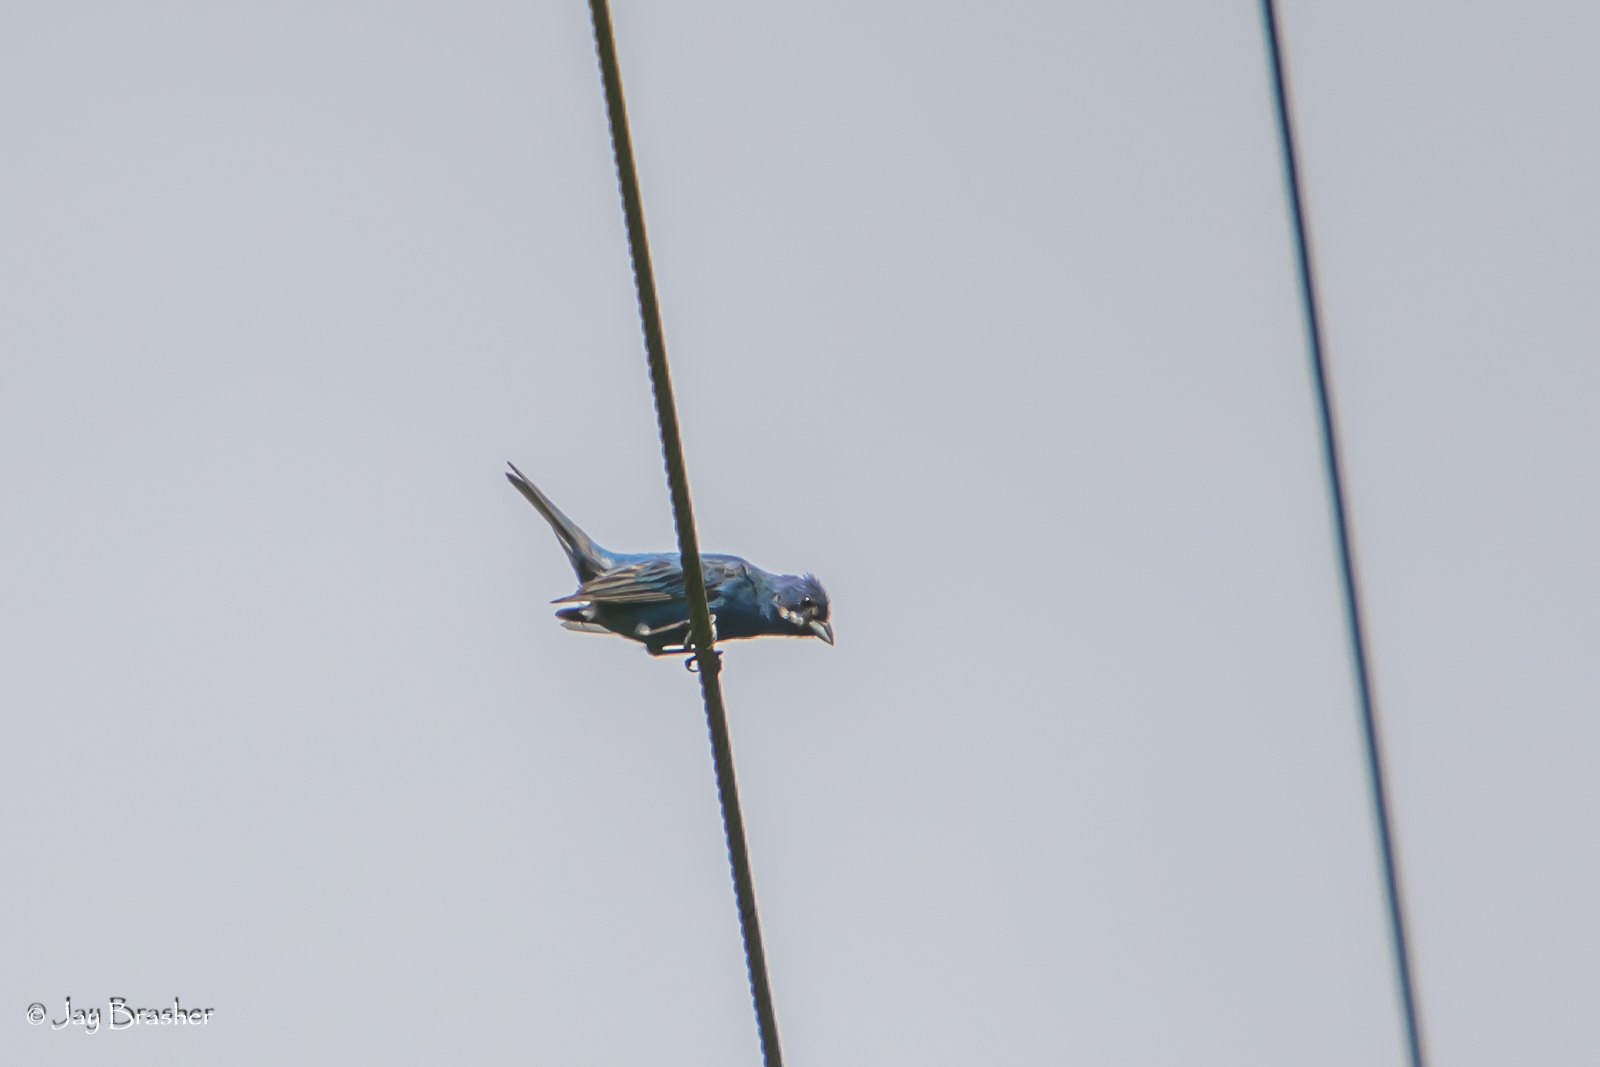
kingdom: Animalia
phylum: Chordata
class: Aves
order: Passeriformes
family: Cardinalidae
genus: Passerina
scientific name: Passerina cyanea
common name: Indigo bunting
